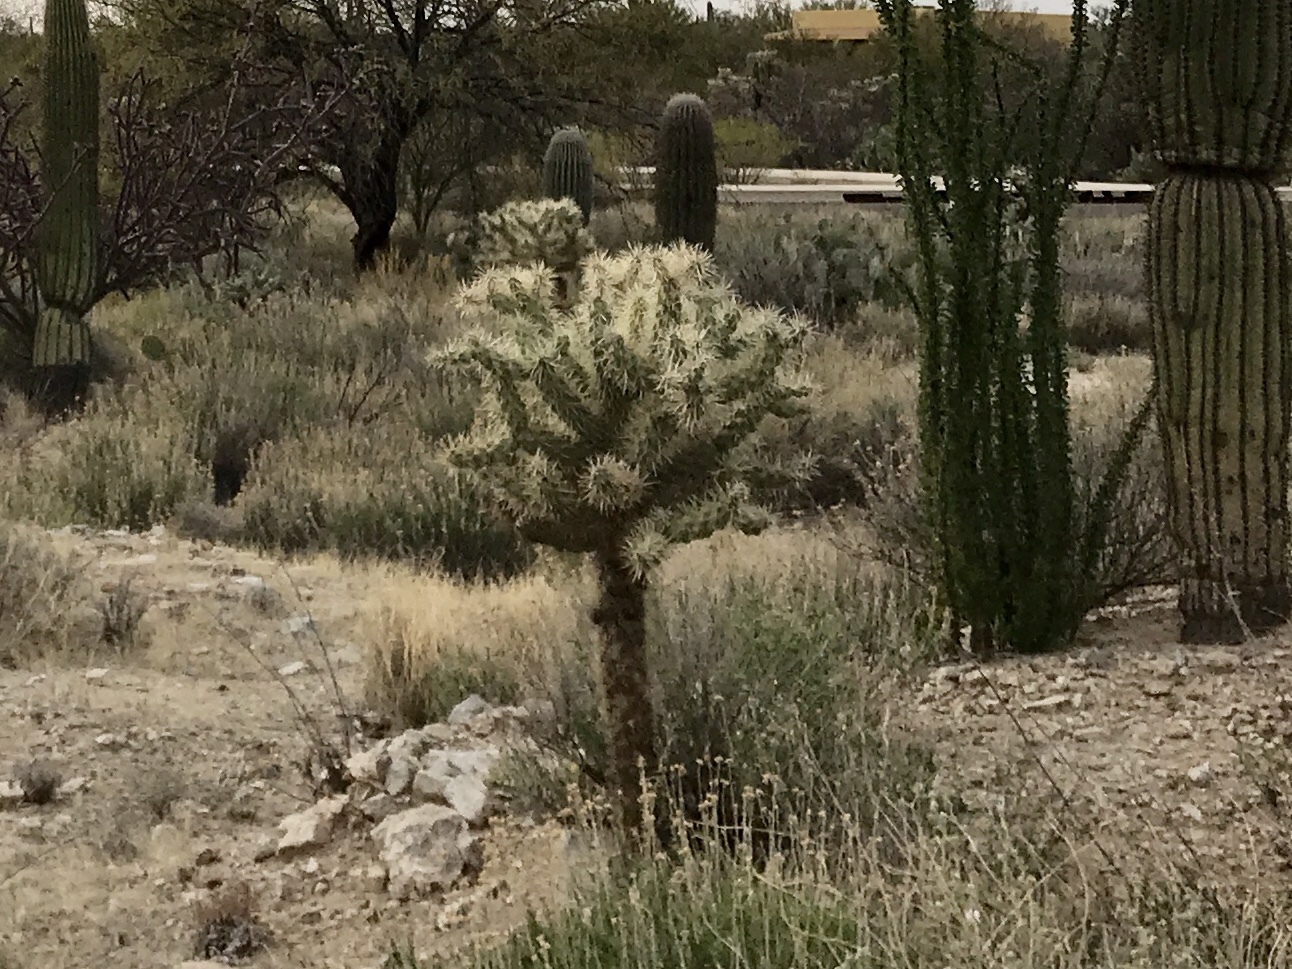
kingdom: Plantae
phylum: Tracheophyta
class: Magnoliopsida
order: Caryophyllales
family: Cactaceae
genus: Cylindropuntia
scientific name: Cylindropuntia fulgida
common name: Jumping cholla
